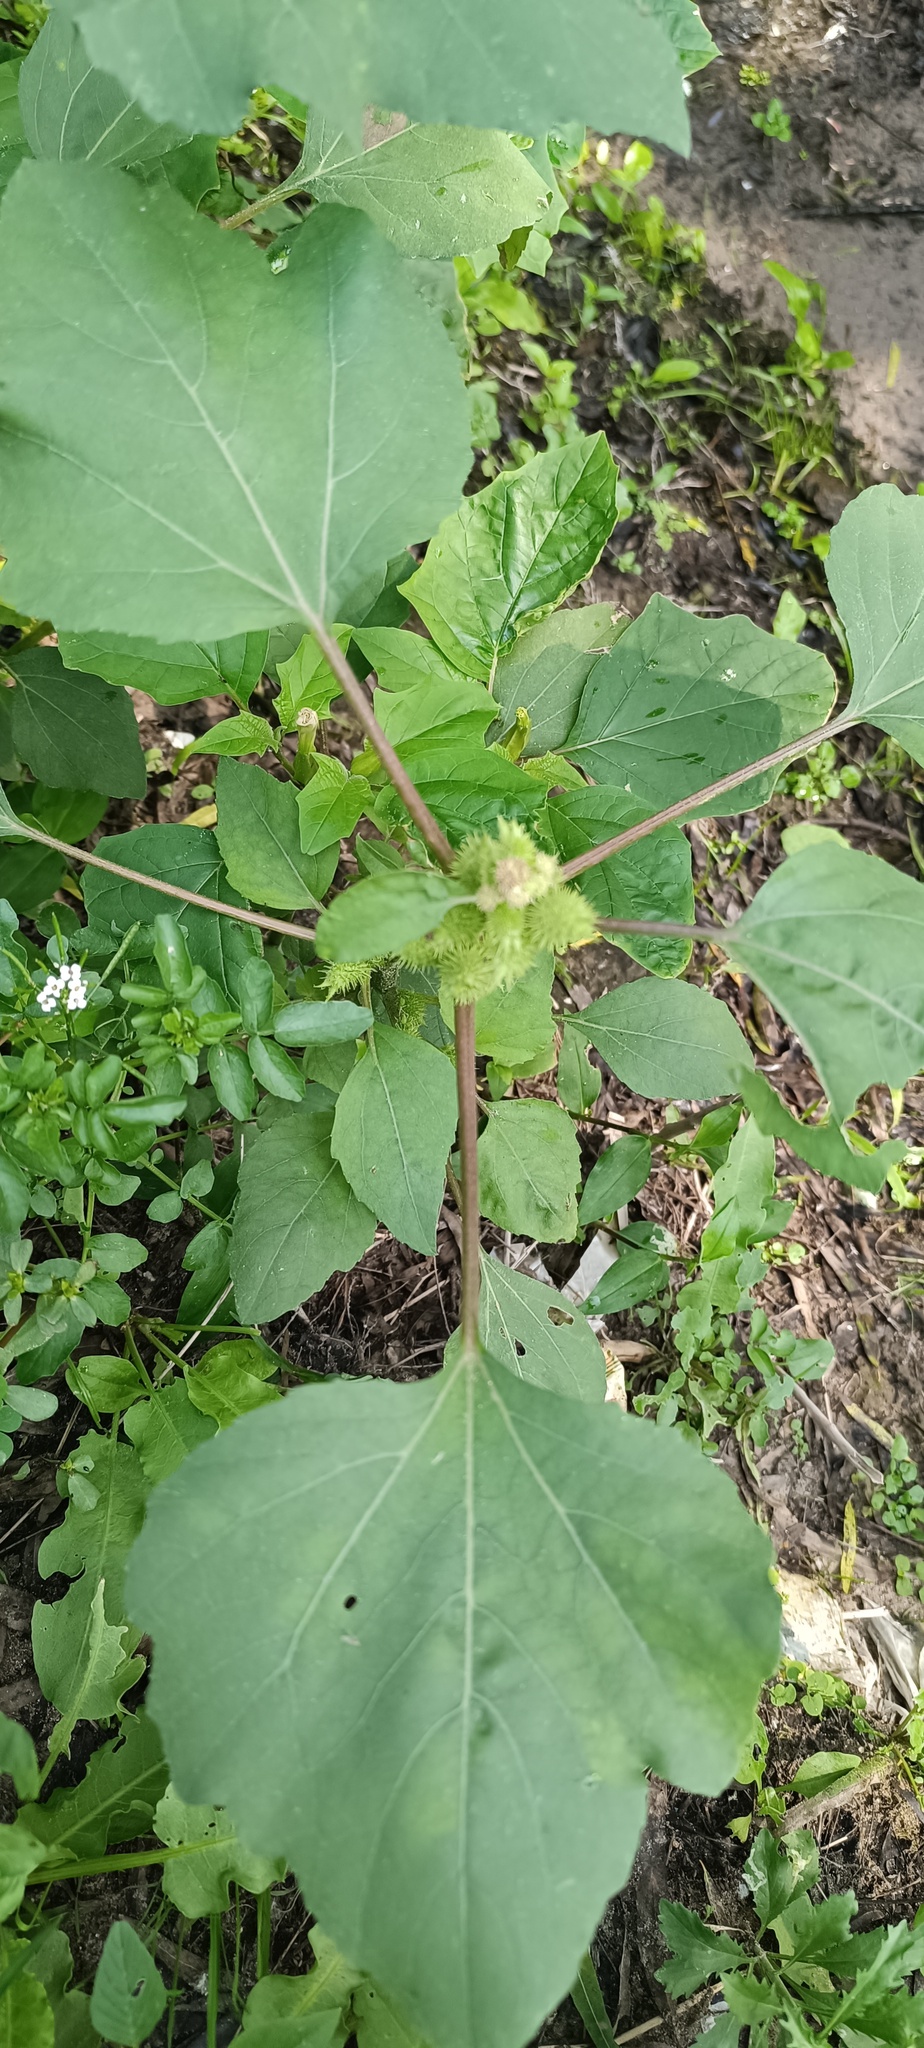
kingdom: Plantae
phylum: Tracheophyta
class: Magnoliopsida
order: Asterales
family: Asteraceae
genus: Xanthium
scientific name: Xanthium strumarium
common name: Rough cocklebur
